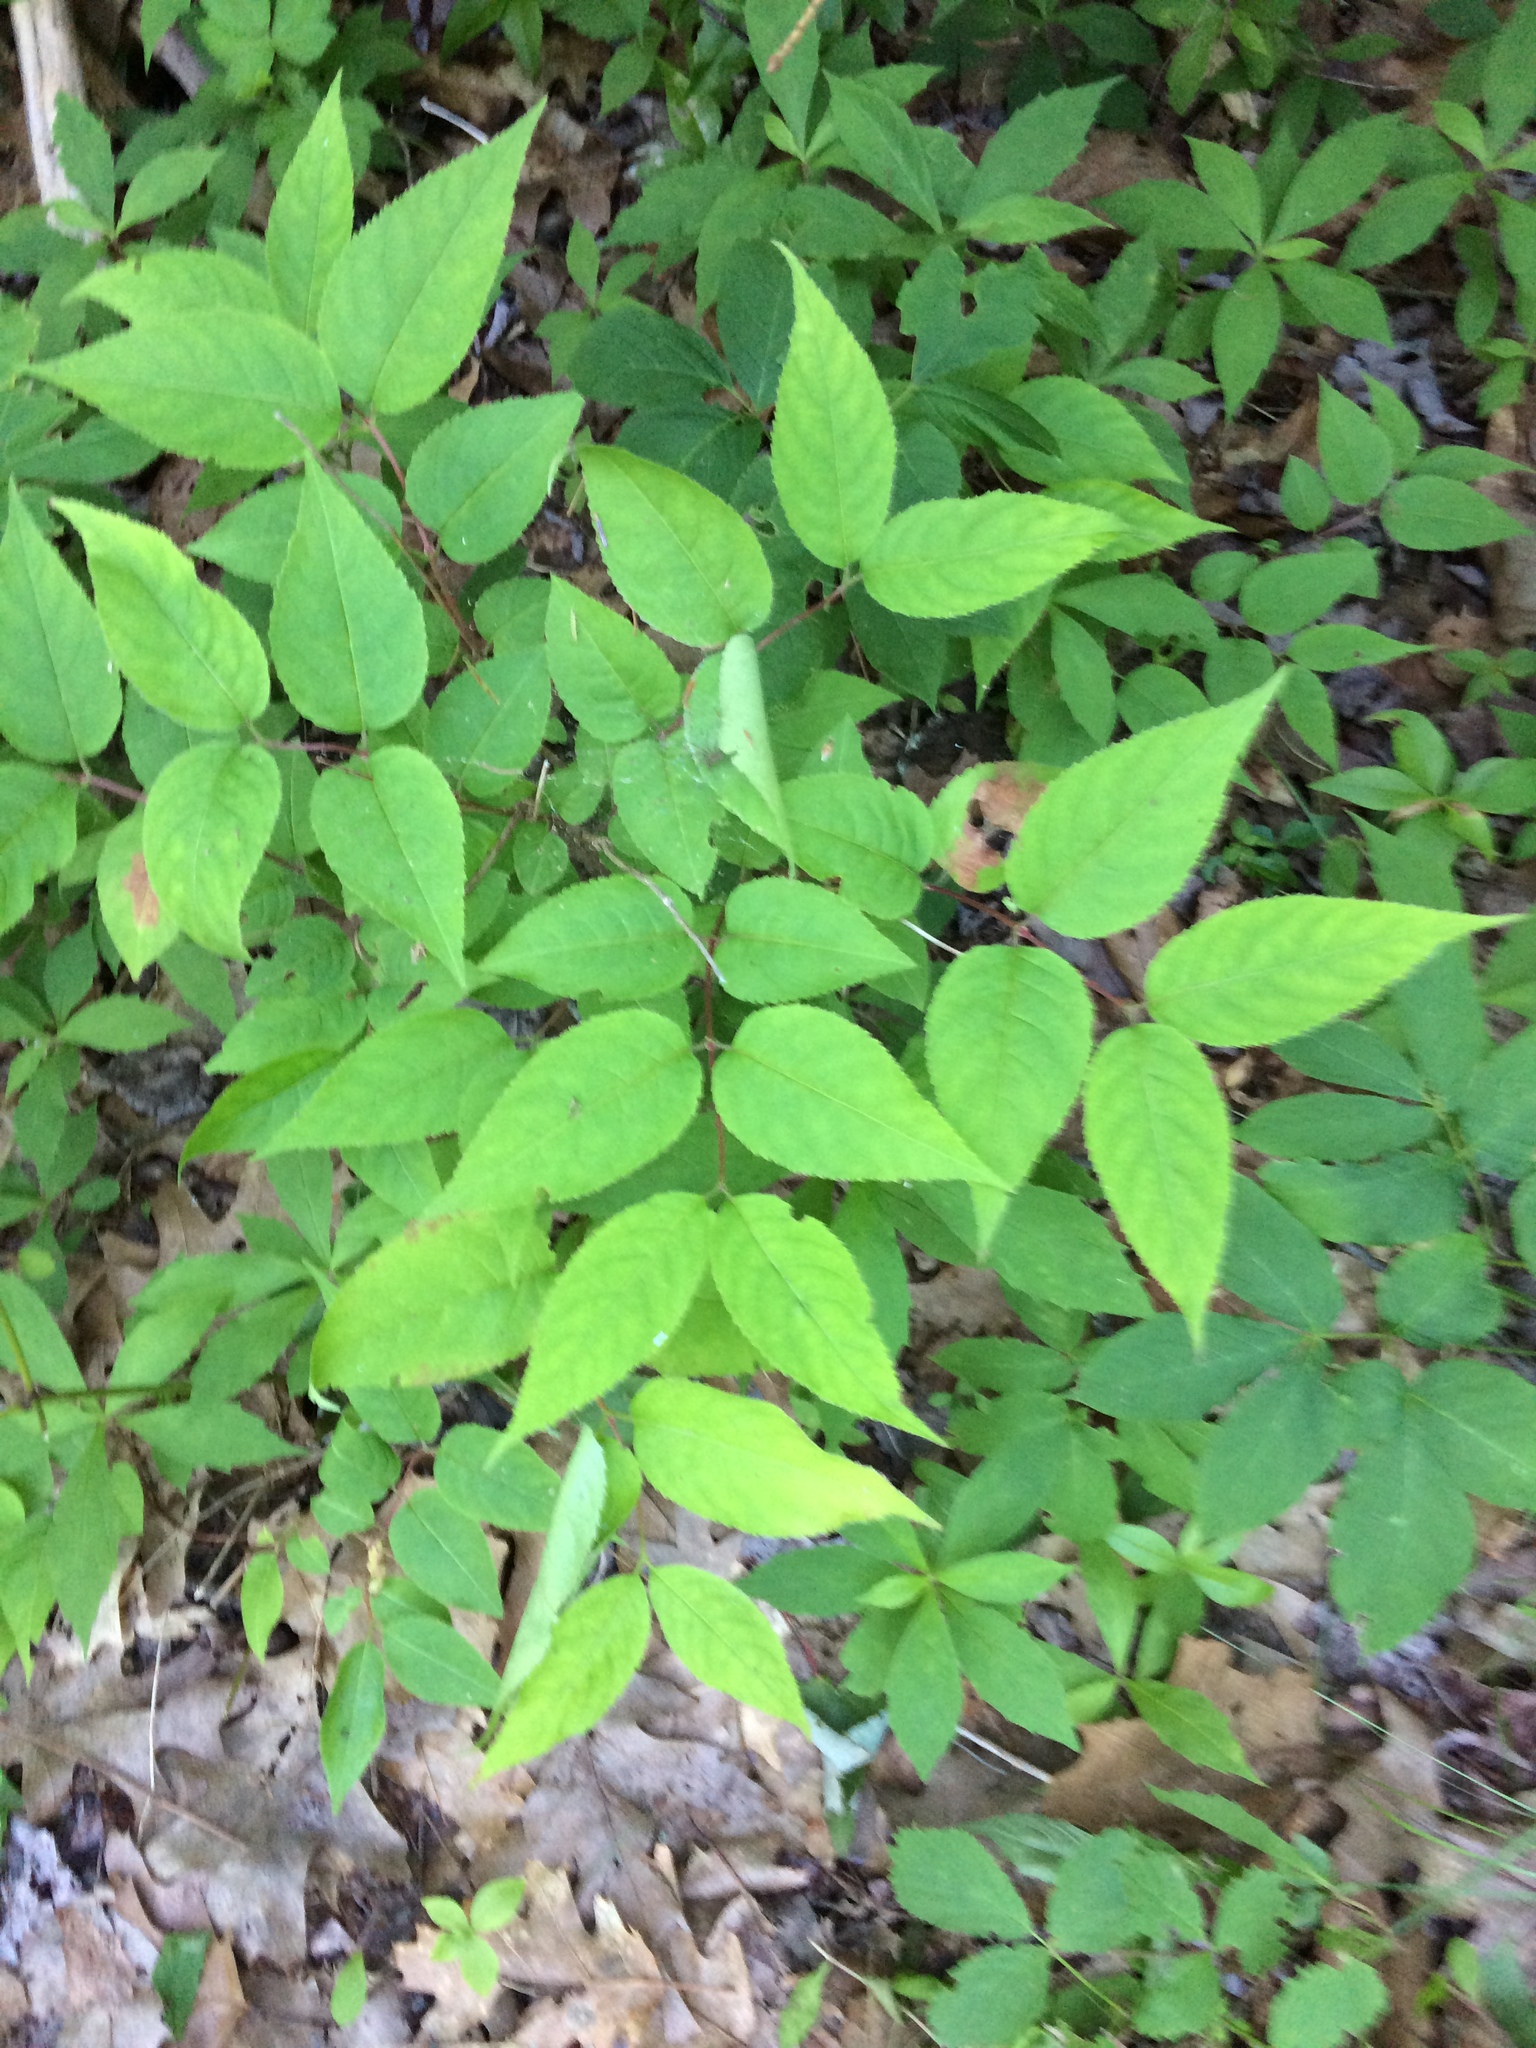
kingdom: Plantae
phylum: Tracheophyta
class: Magnoliopsida
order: Dipsacales
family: Caprifoliaceae
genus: Diervilla
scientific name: Diervilla lonicera
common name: Bush-honeysuckle
